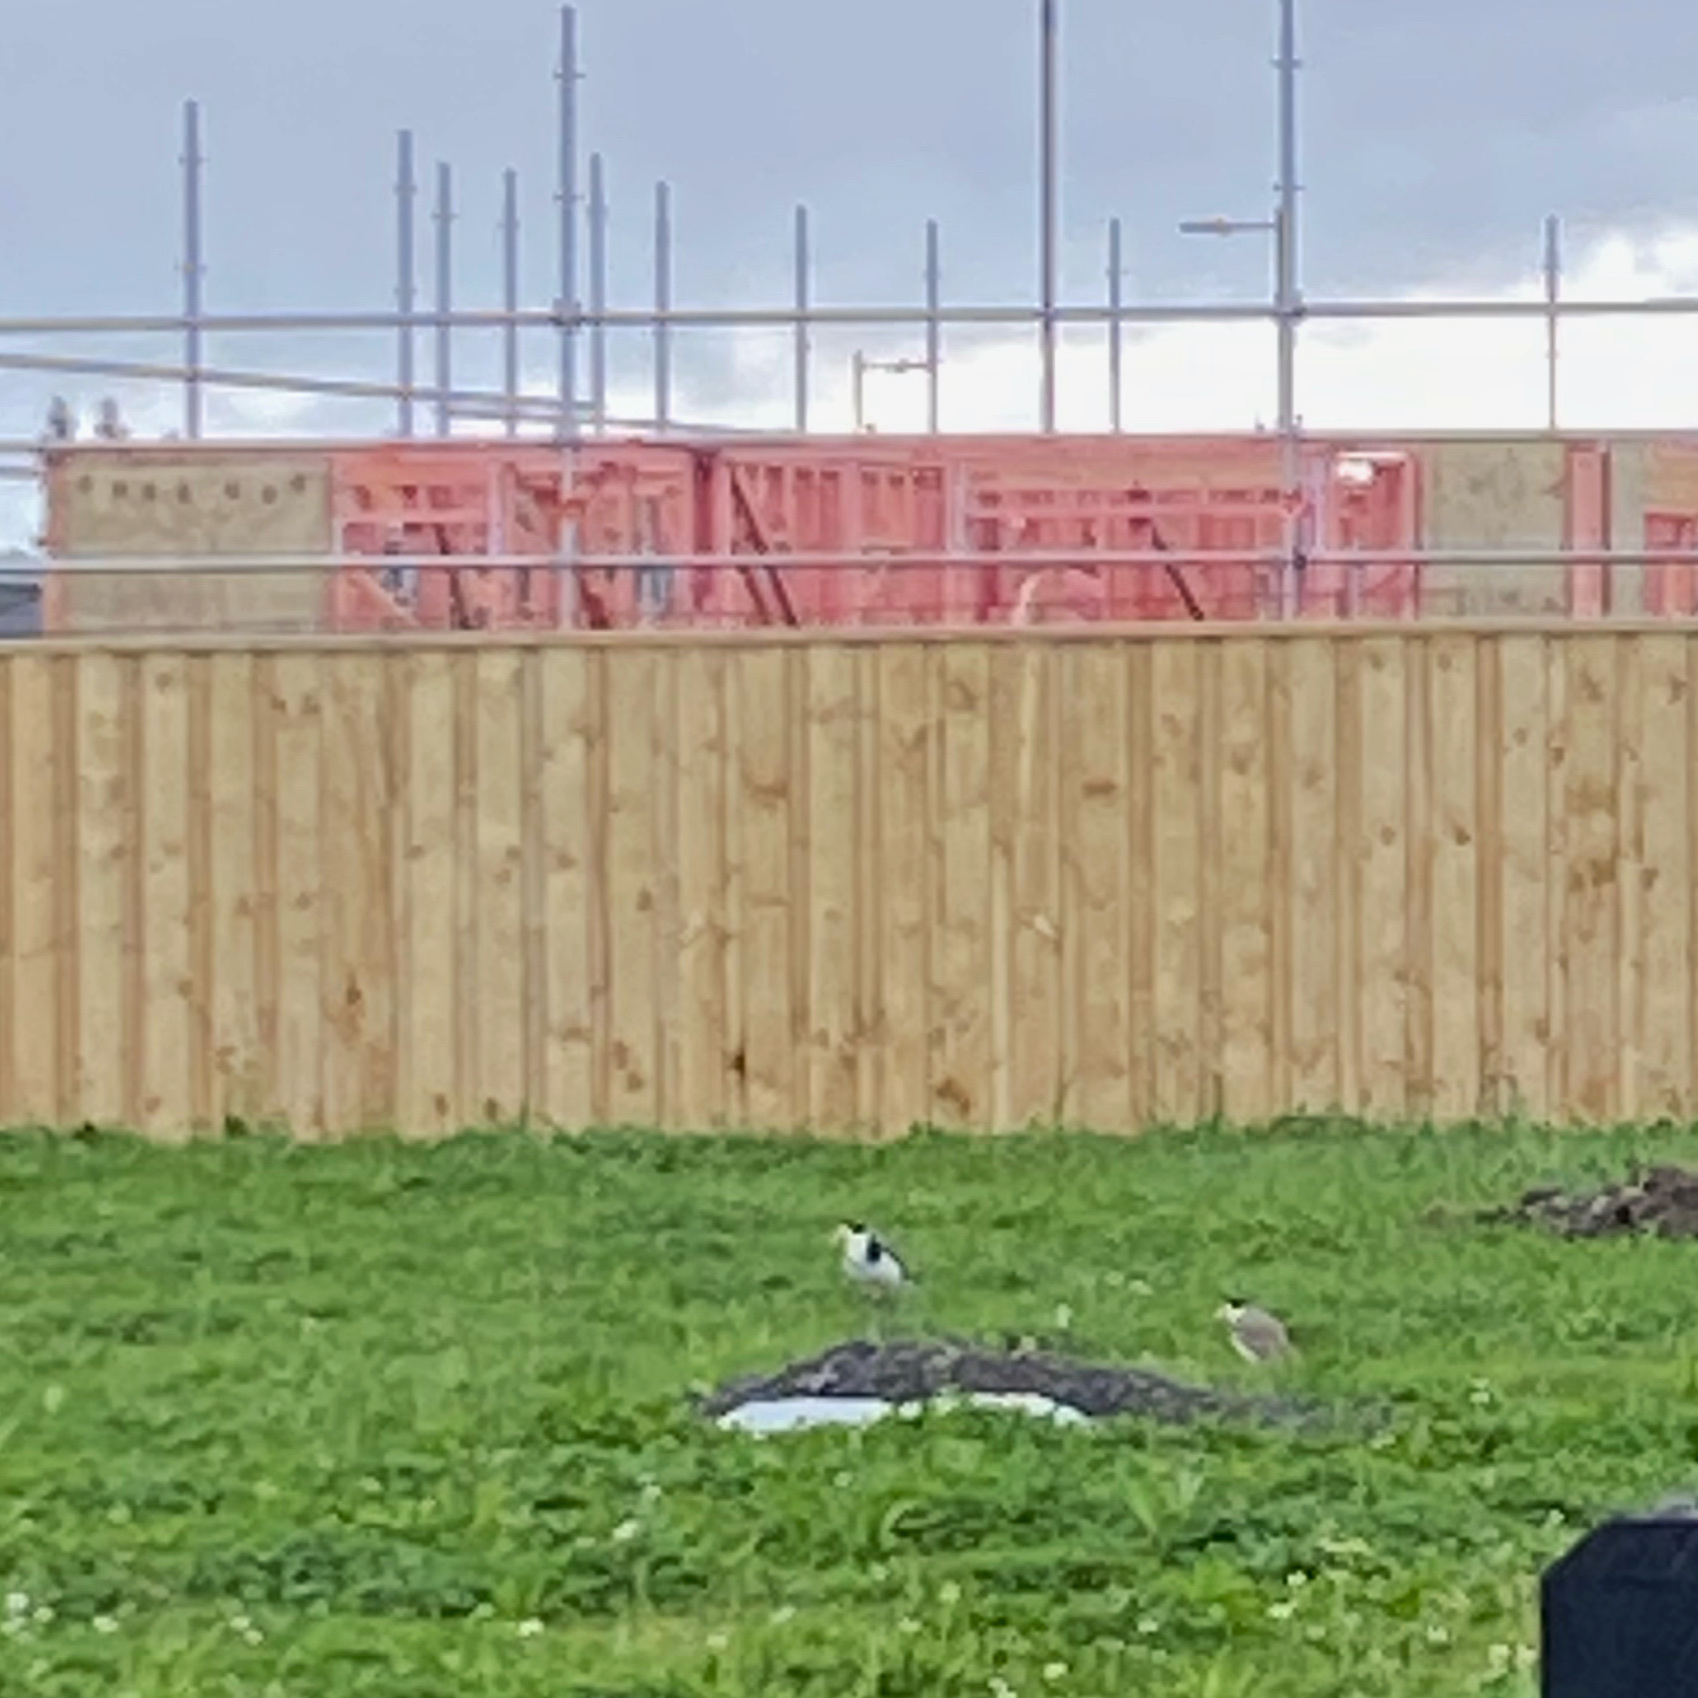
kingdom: Animalia
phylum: Chordata
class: Aves
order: Charadriiformes
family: Charadriidae
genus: Vanellus
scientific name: Vanellus miles
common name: Masked lapwing
